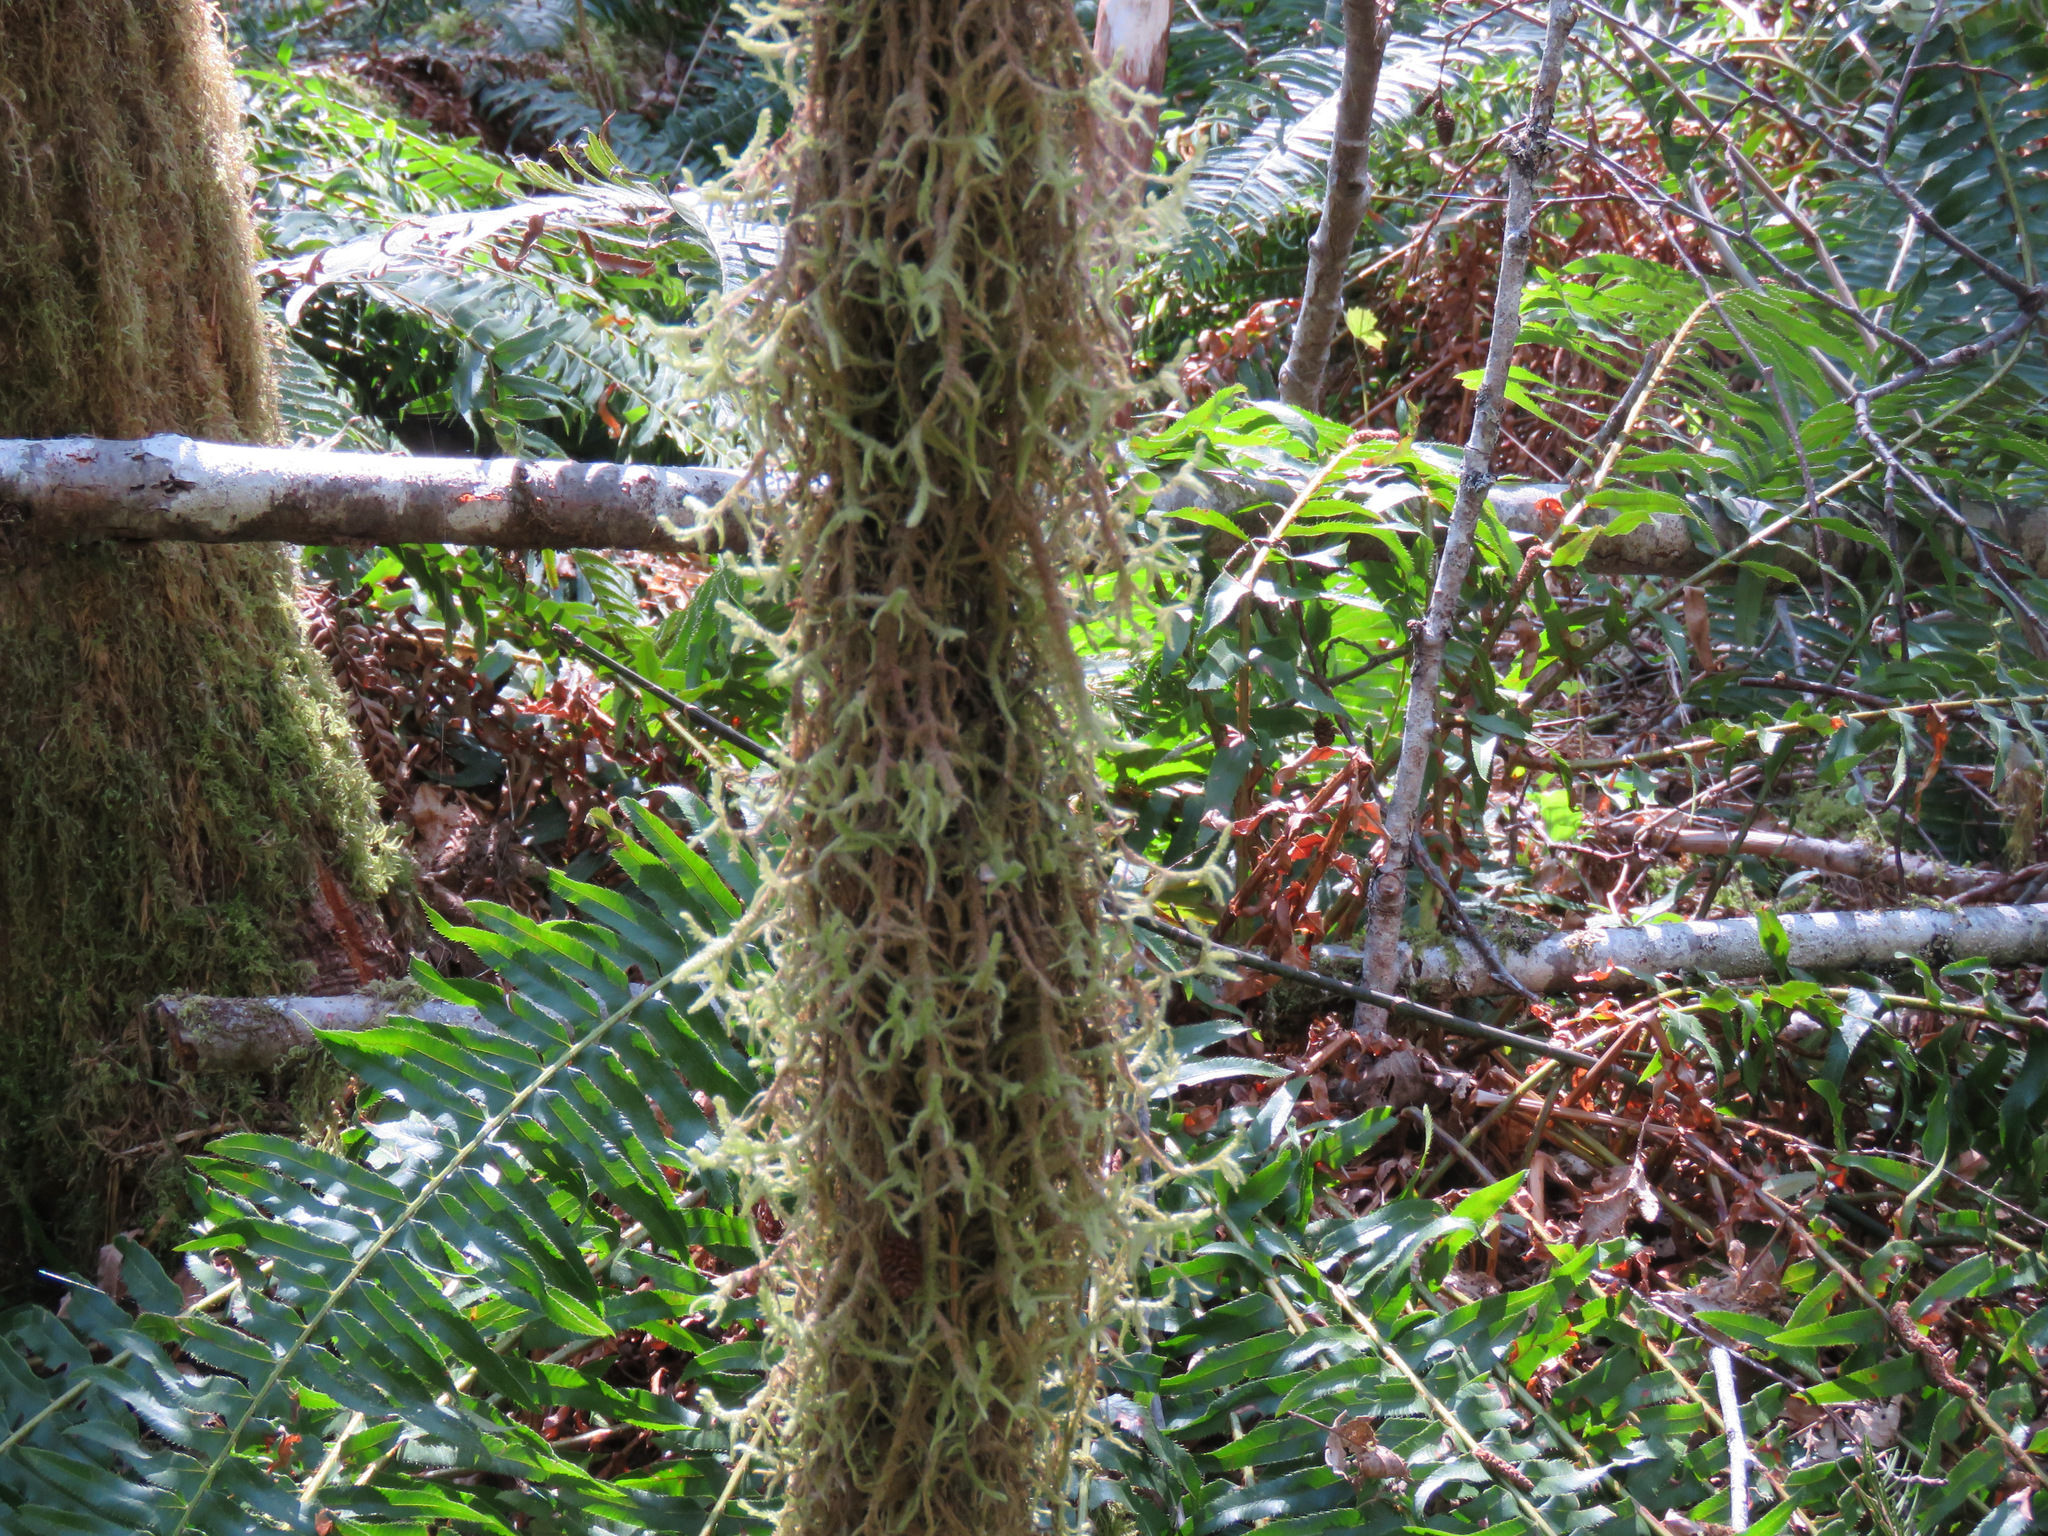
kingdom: Plantae
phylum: Bryophyta
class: Bryopsida
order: Hypnales
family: Neckeraceae
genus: Neckera
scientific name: Neckera douglasii
